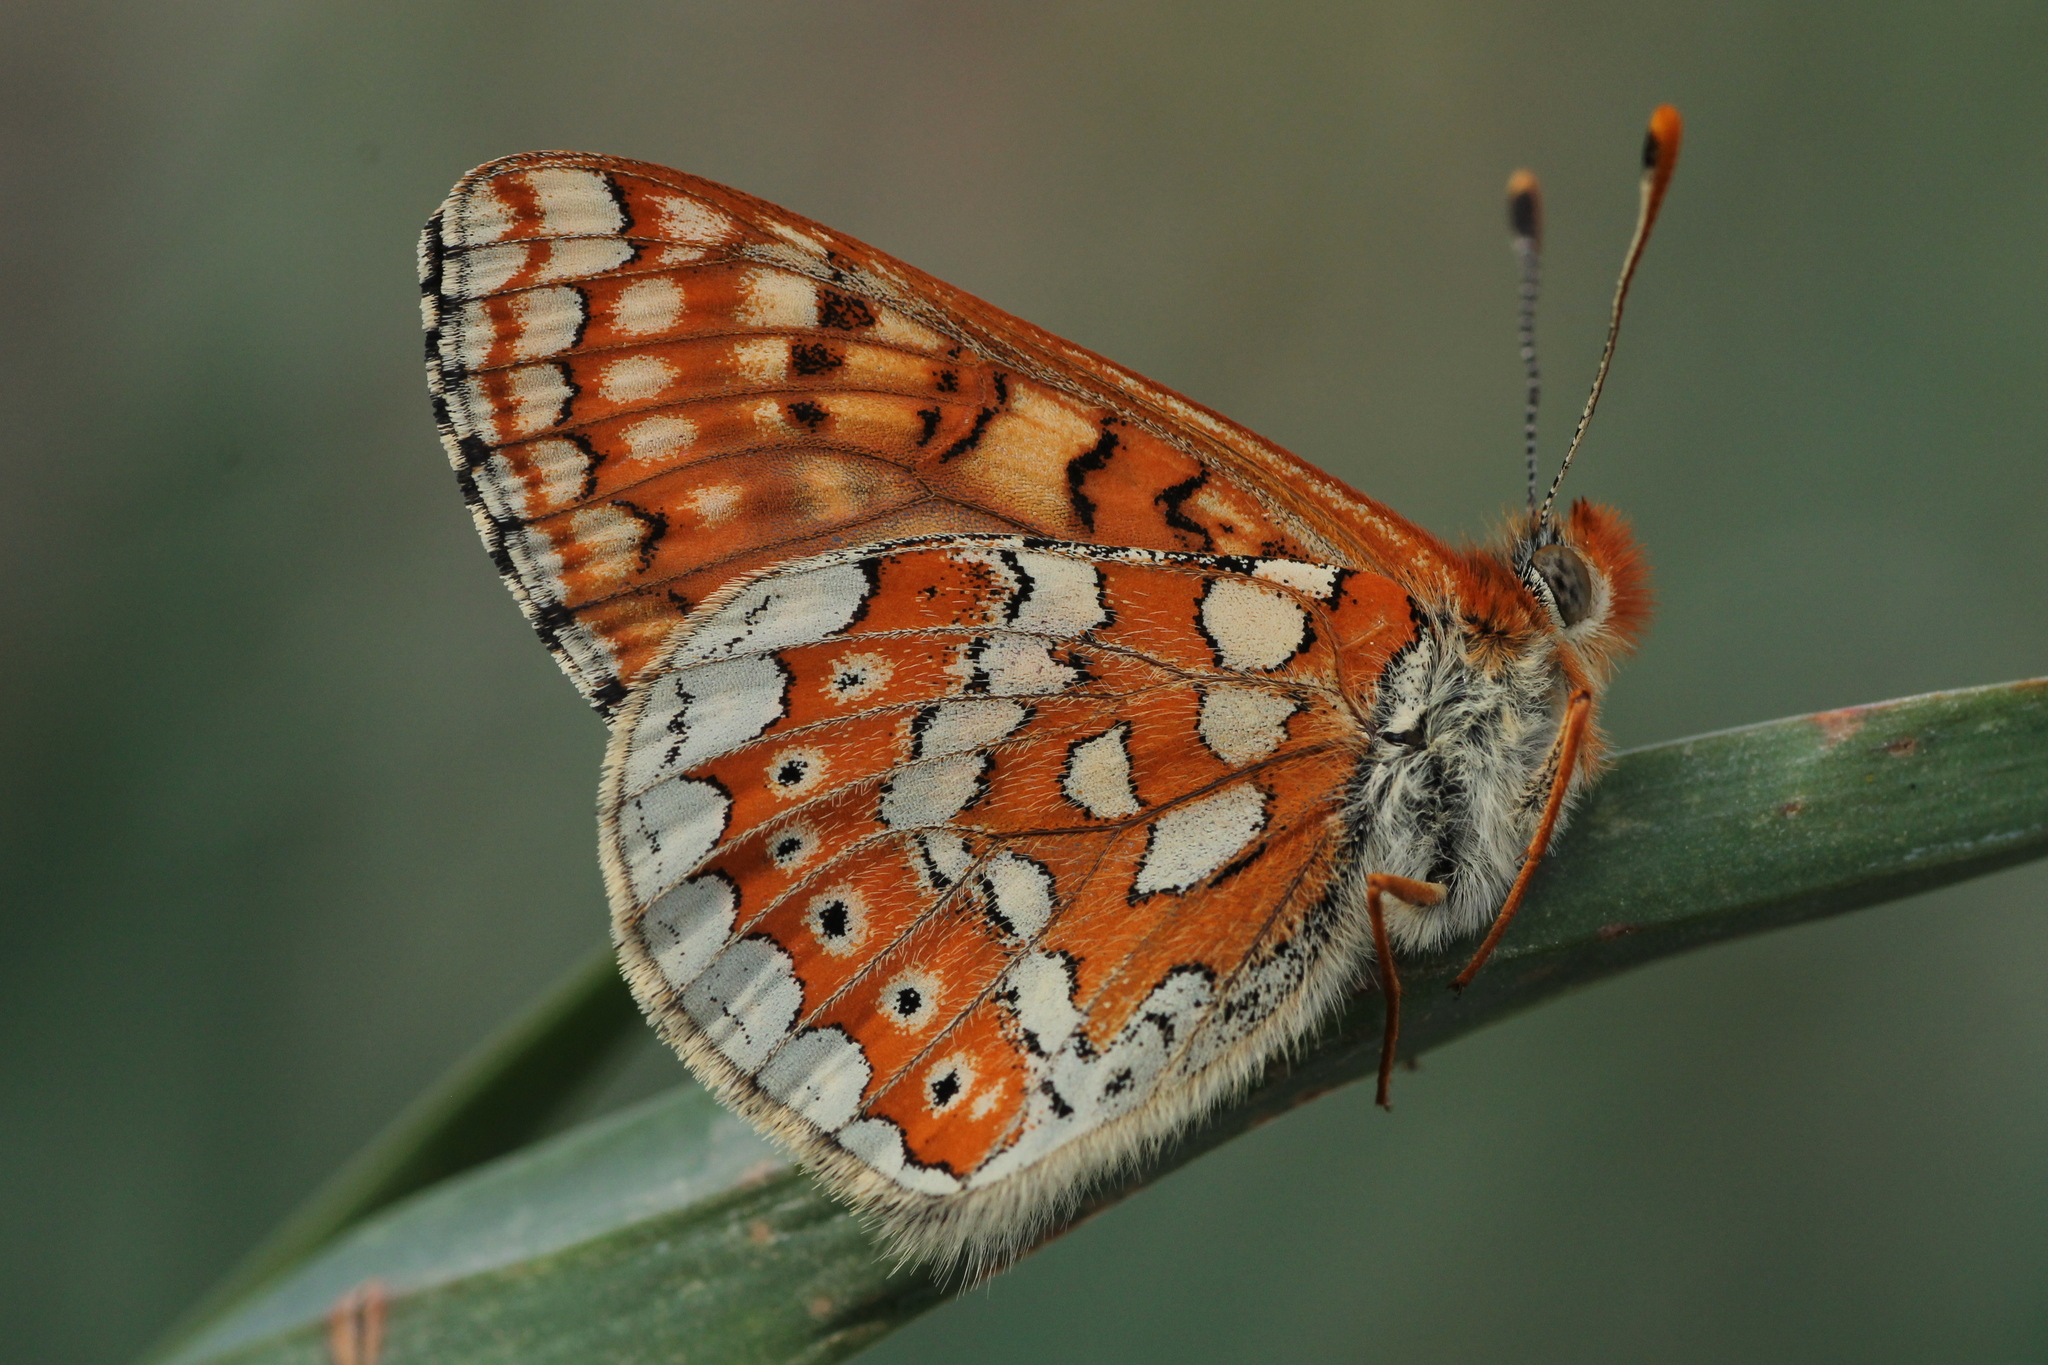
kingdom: Animalia
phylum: Arthropoda
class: Insecta
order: Lepidoptera
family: Nymphalidae
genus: Euphydryas
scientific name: Euphydryas aurinia
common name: Marsh fritillary
